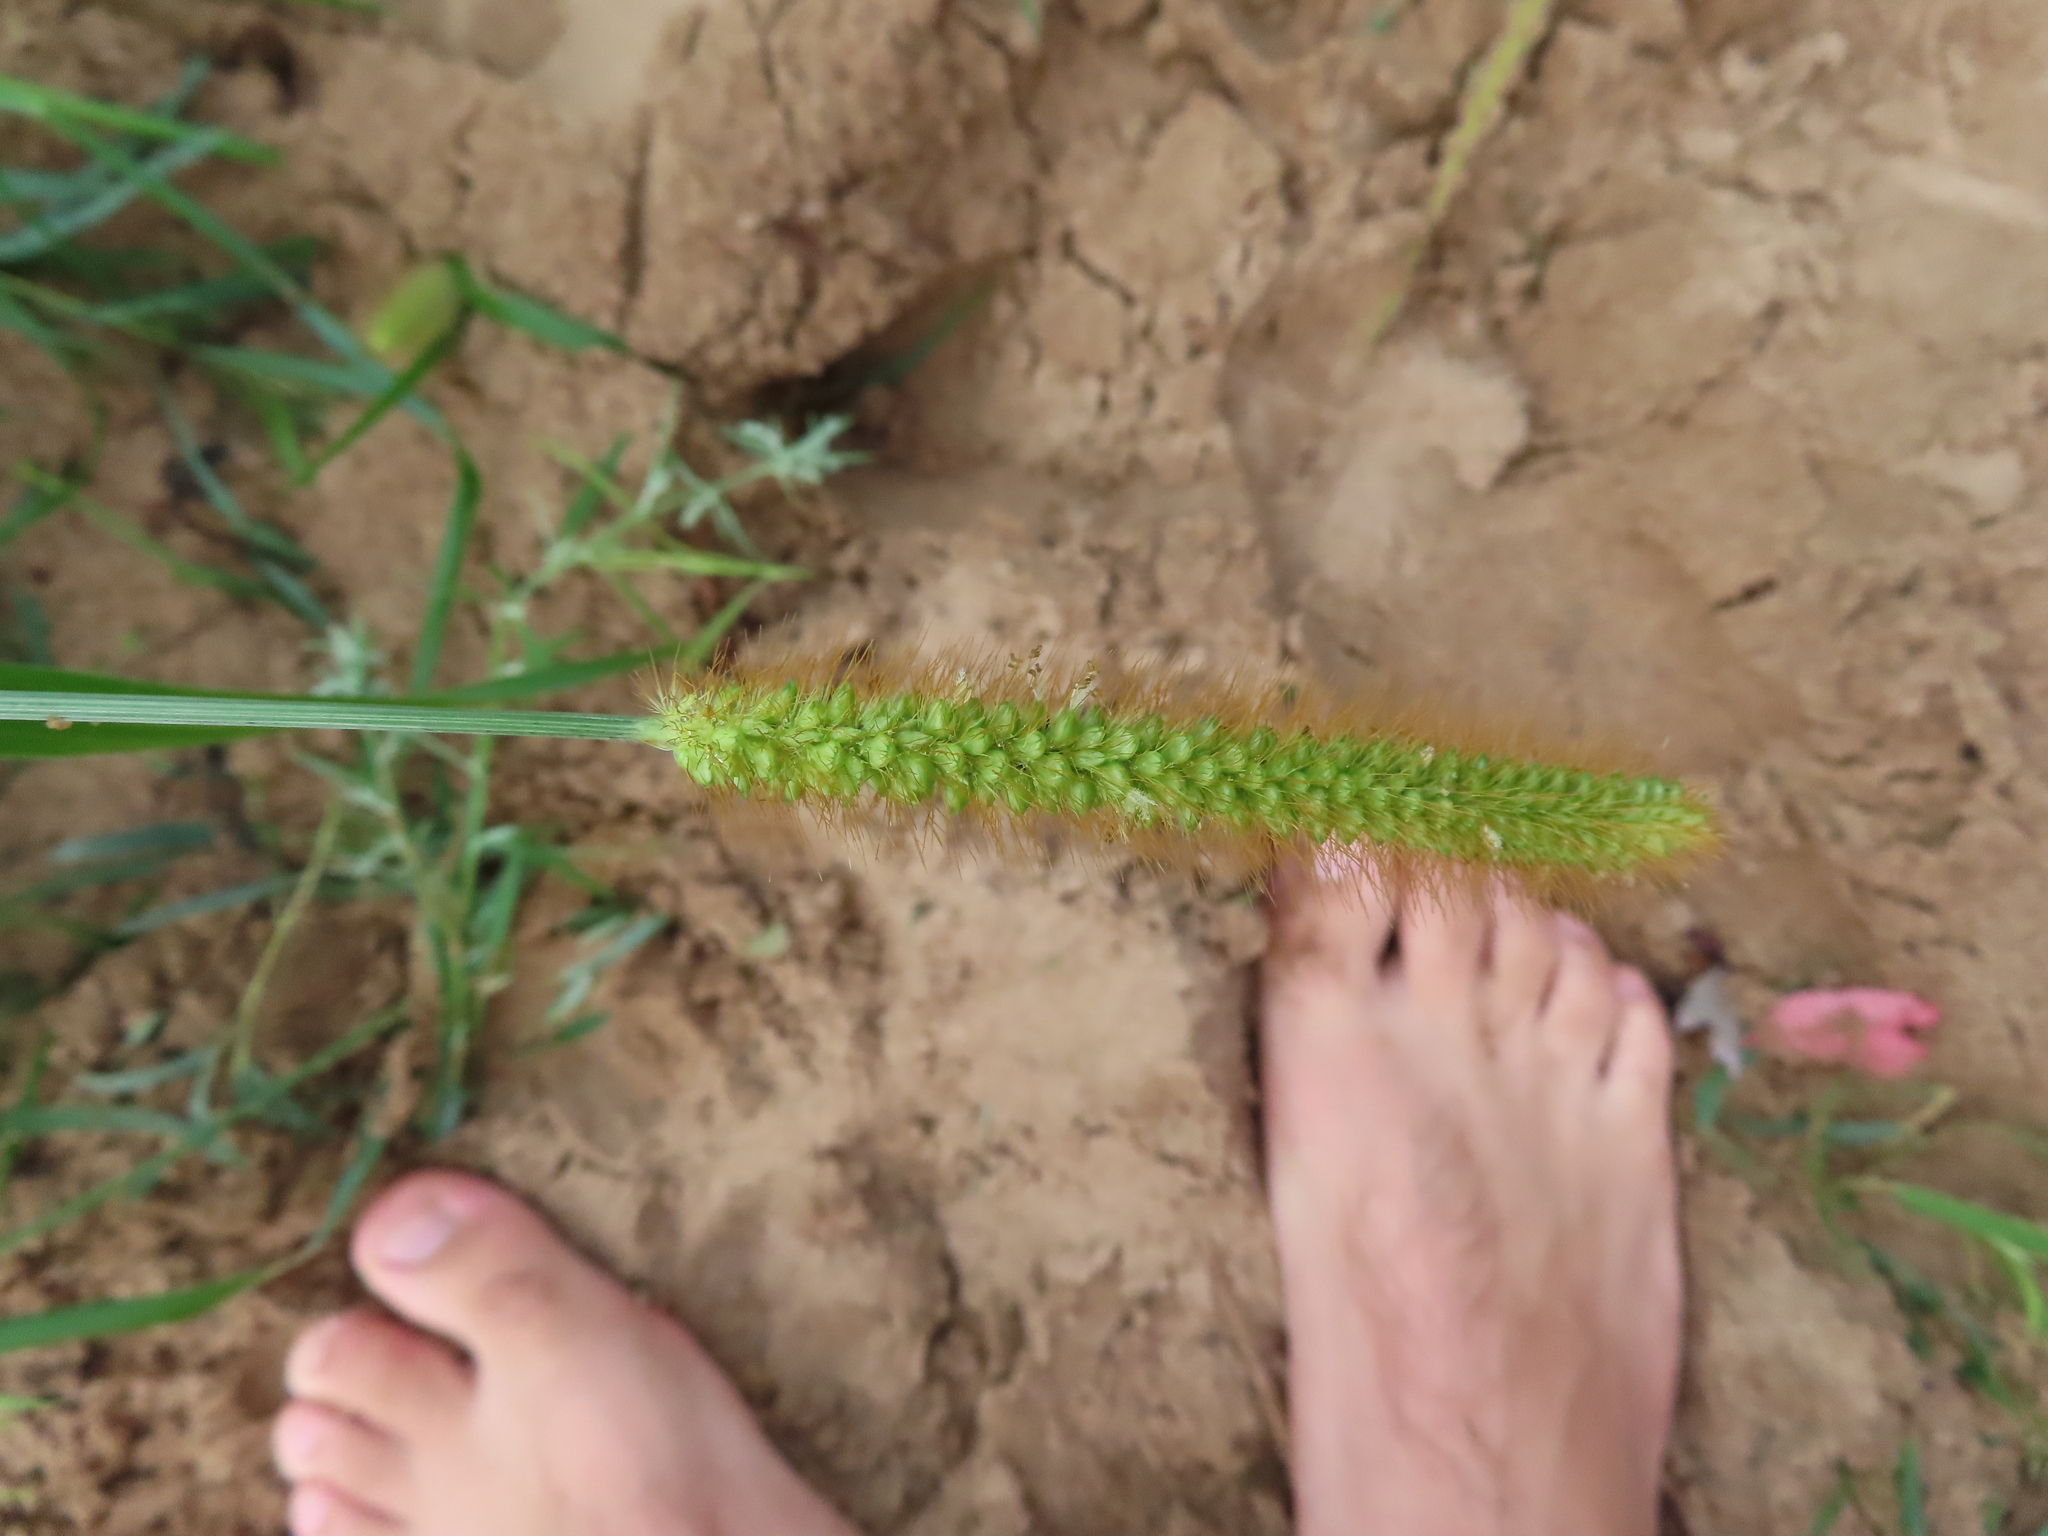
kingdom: Plantae
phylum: Tracheophyta
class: Liliopsida
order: Poales
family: Poaceae
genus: Setaria
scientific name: Setaria pumila
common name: Yellow bristle-grass
